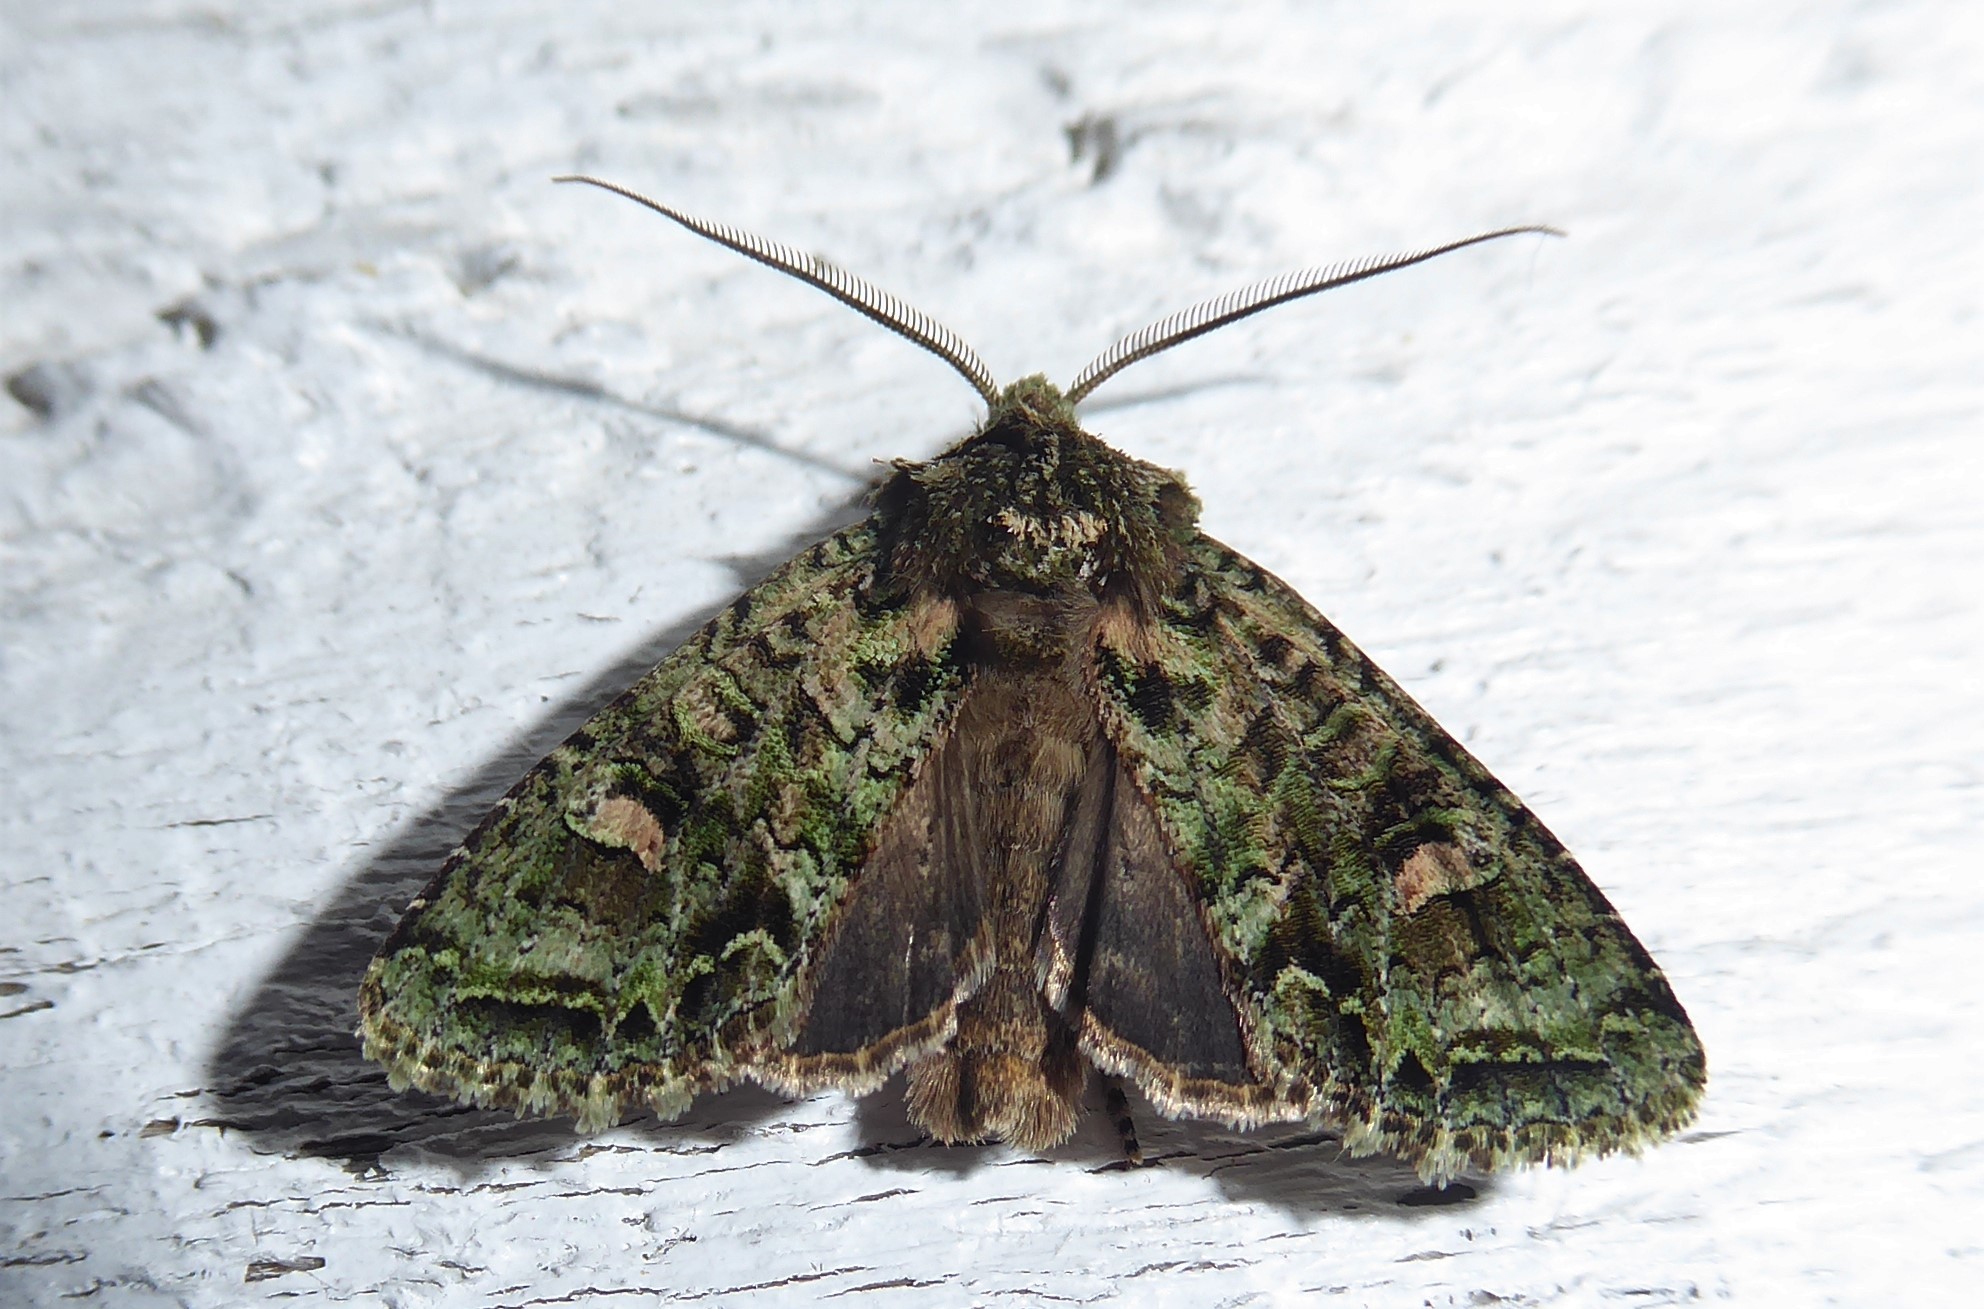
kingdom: Animalia
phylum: Arthropoda
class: Insecta
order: Lepidoptera
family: Noctuidae
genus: Ichneutica
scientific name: Ichneutica
